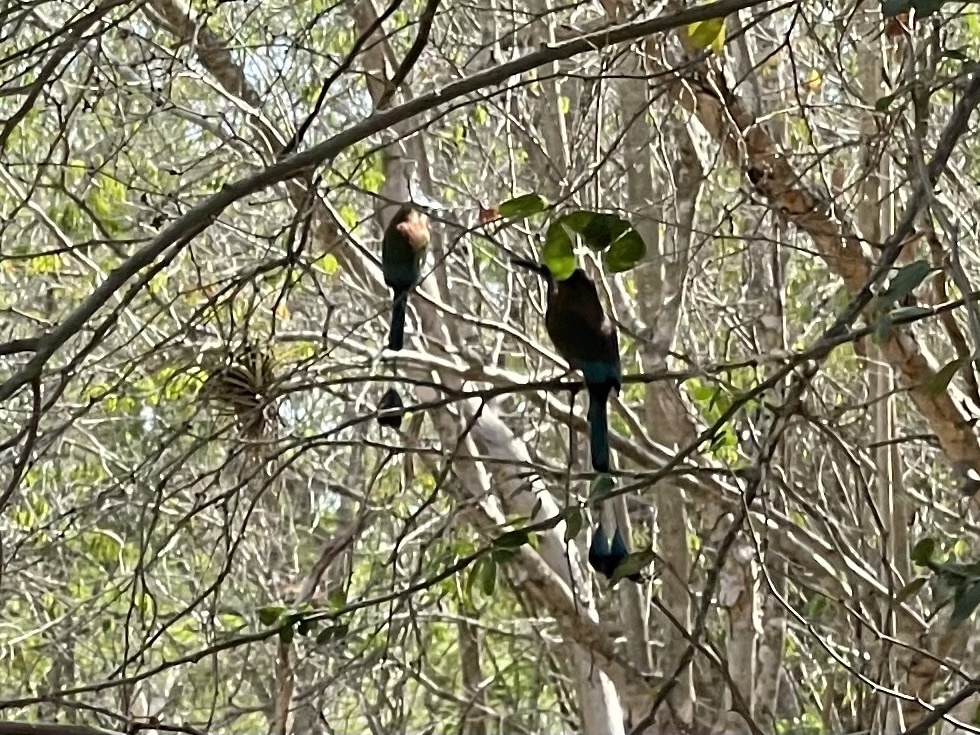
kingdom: Animalia
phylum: Chordata
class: Aves
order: Coraciiformes
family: Momotidae
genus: Eumomota
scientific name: Eumomota superciliosa
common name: Turquoise-browed motmot
